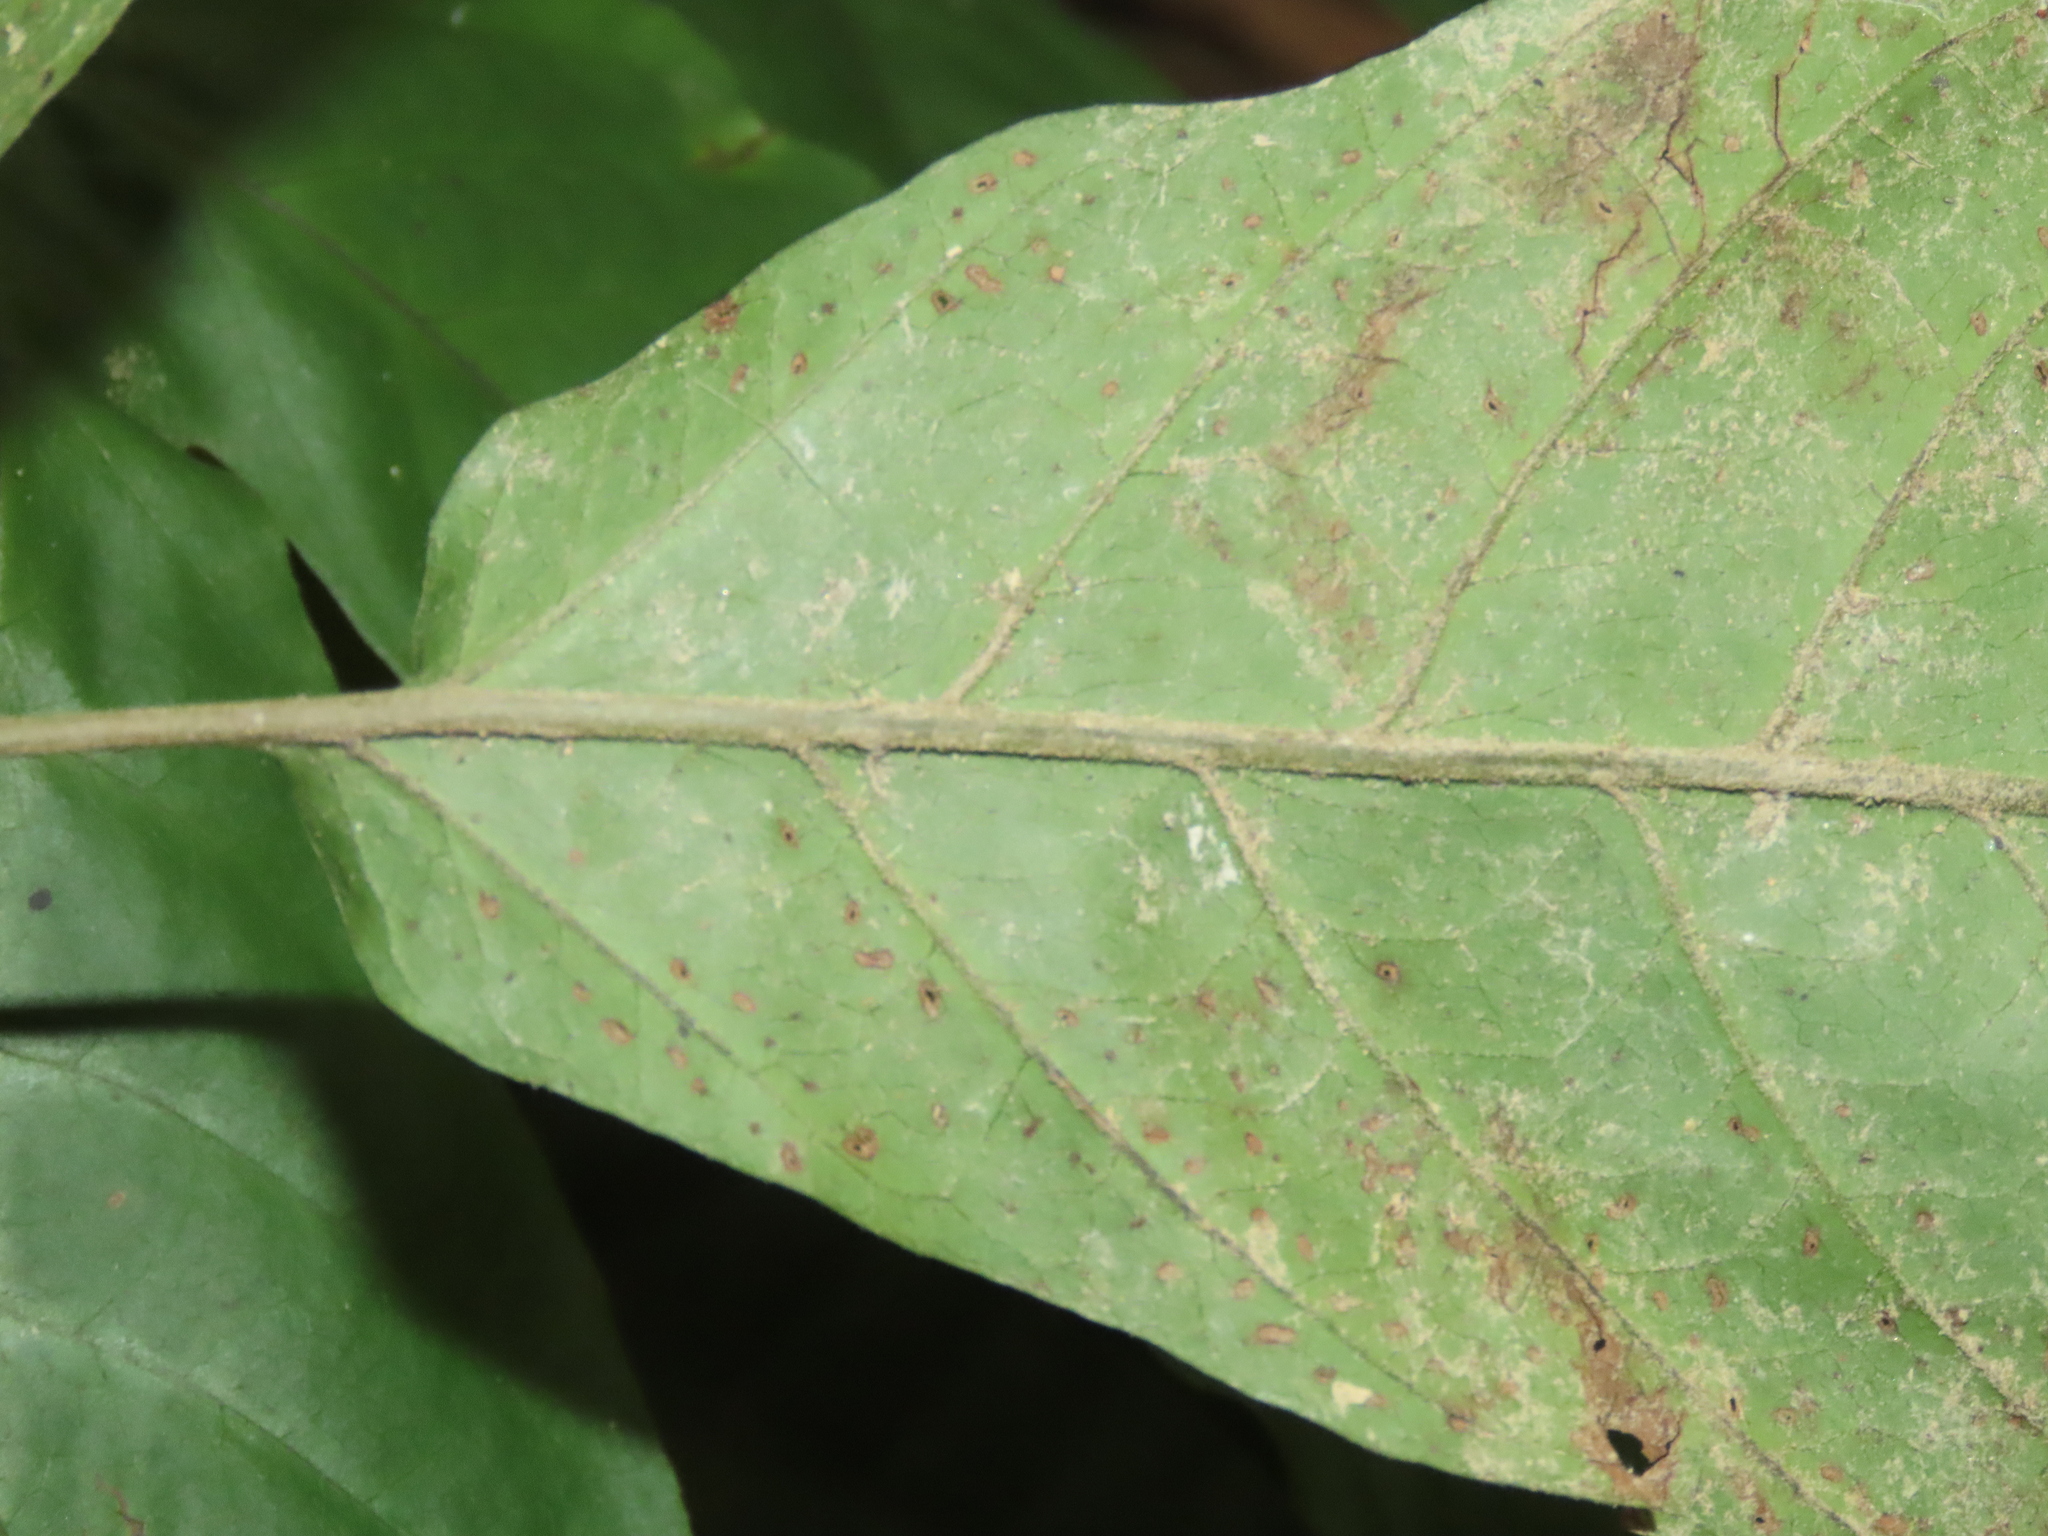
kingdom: Plantae
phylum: Tracheophyta
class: Polypodiopsida
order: Polypodiales
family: Tectariaceae
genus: Tectaria
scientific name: Tectaria polymorpha
